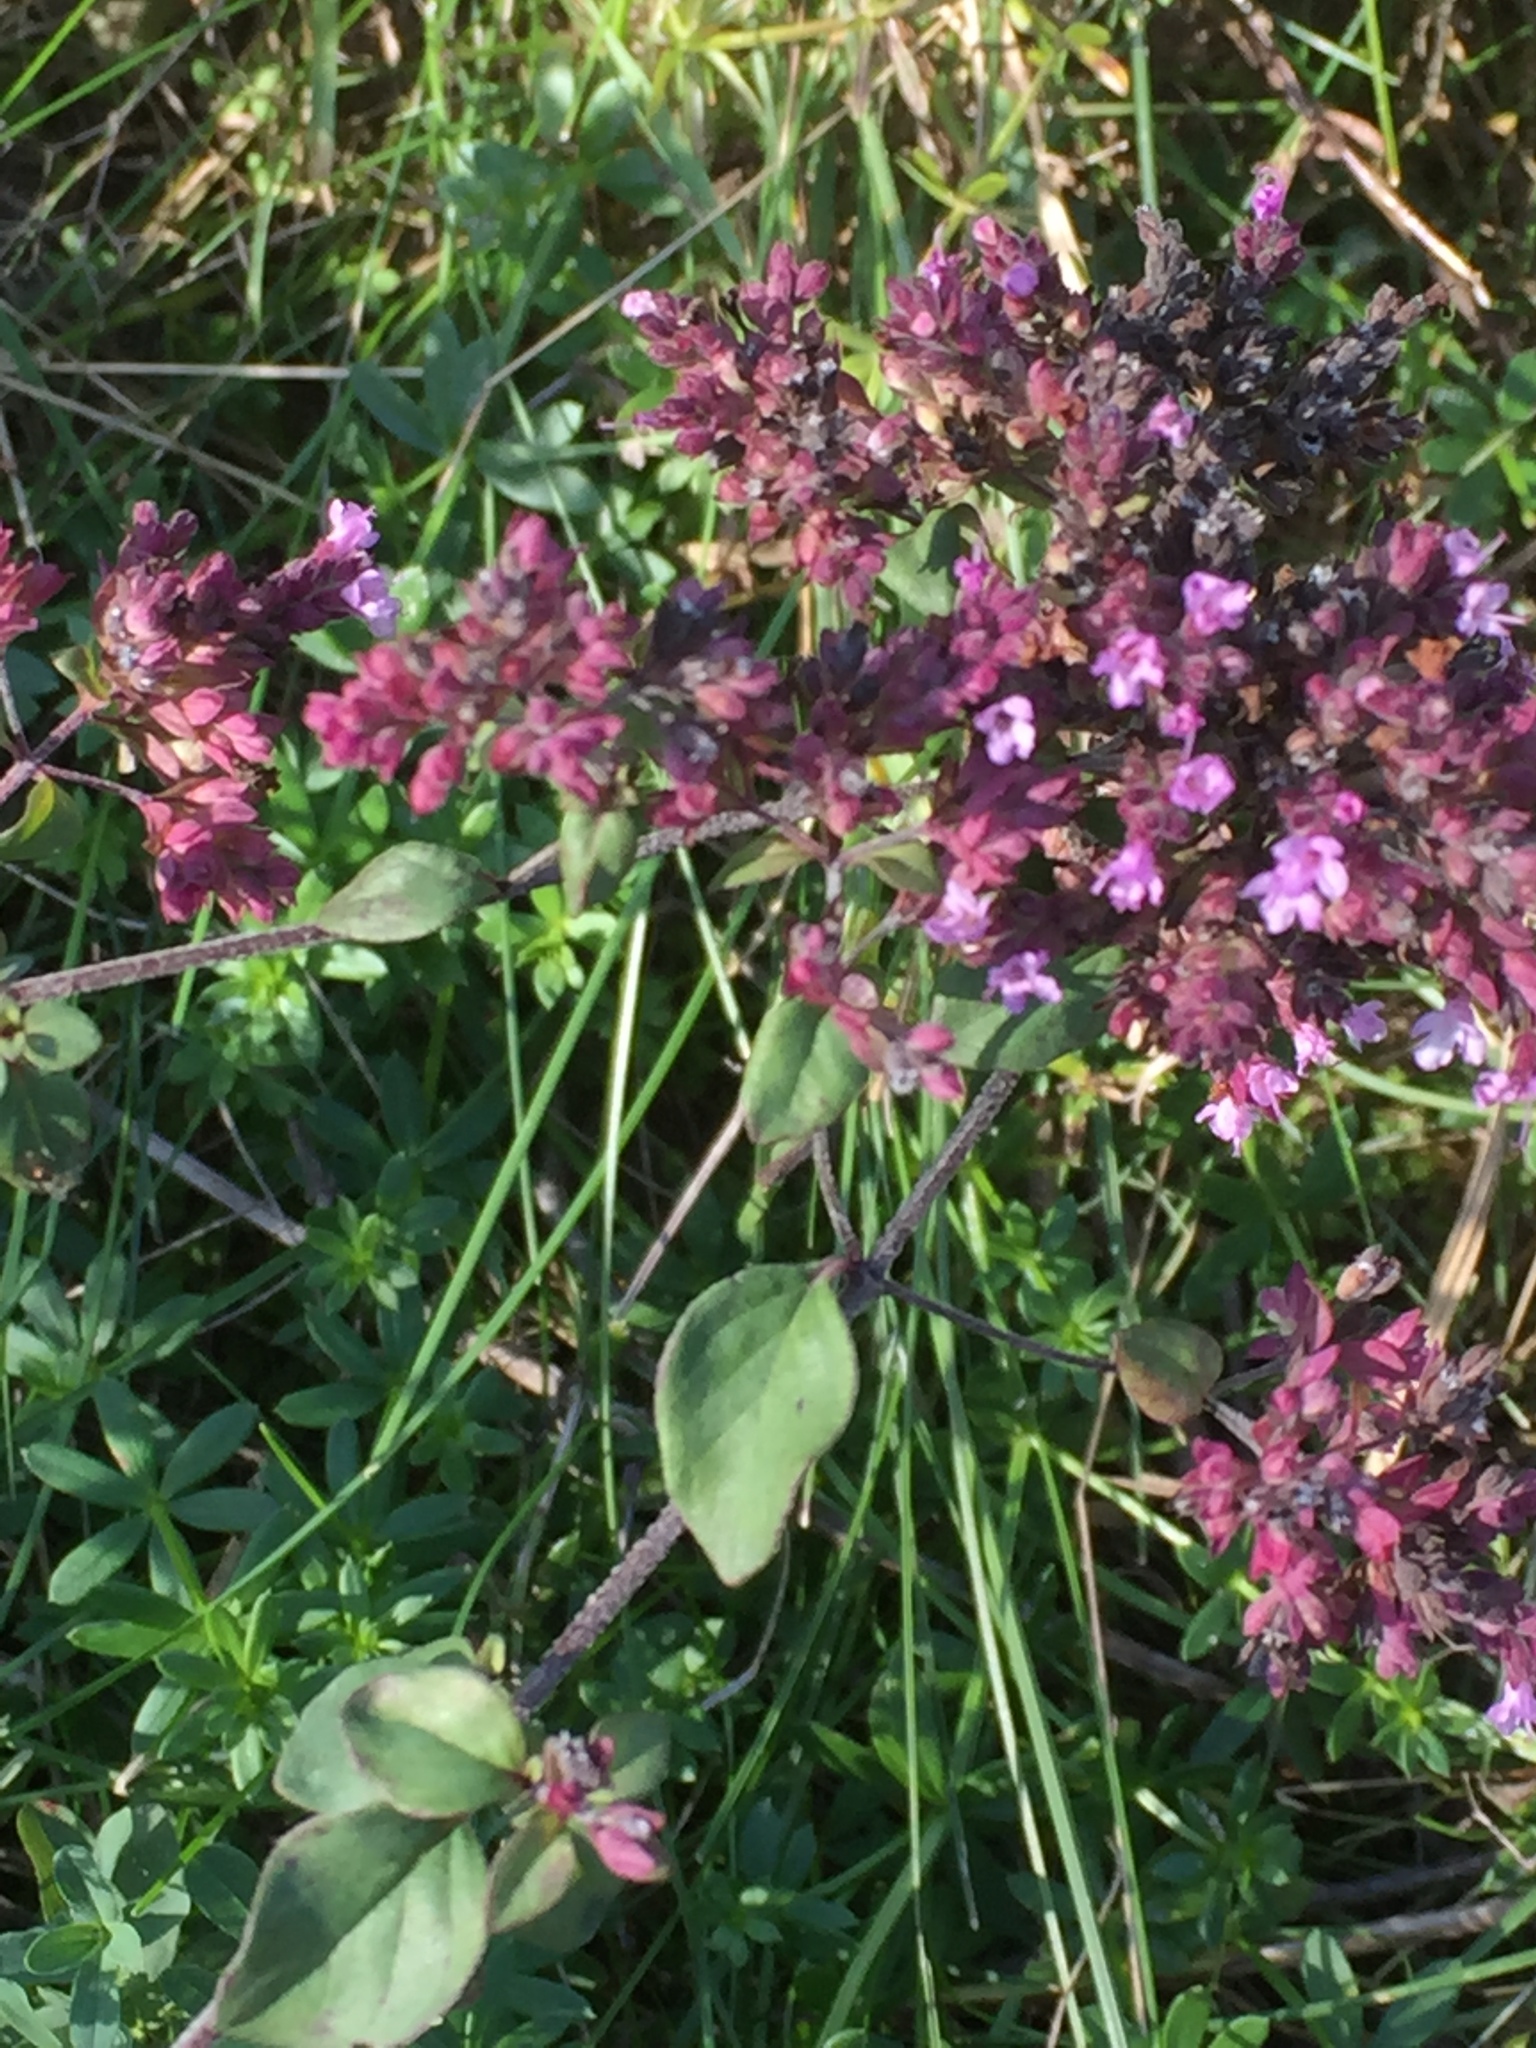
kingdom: Plantae
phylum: Tracheophyta
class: Magnoliopsida
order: Lamiales
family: Lamiaceae
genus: Origanum
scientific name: Origanum vulgare
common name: Wild marjoram
